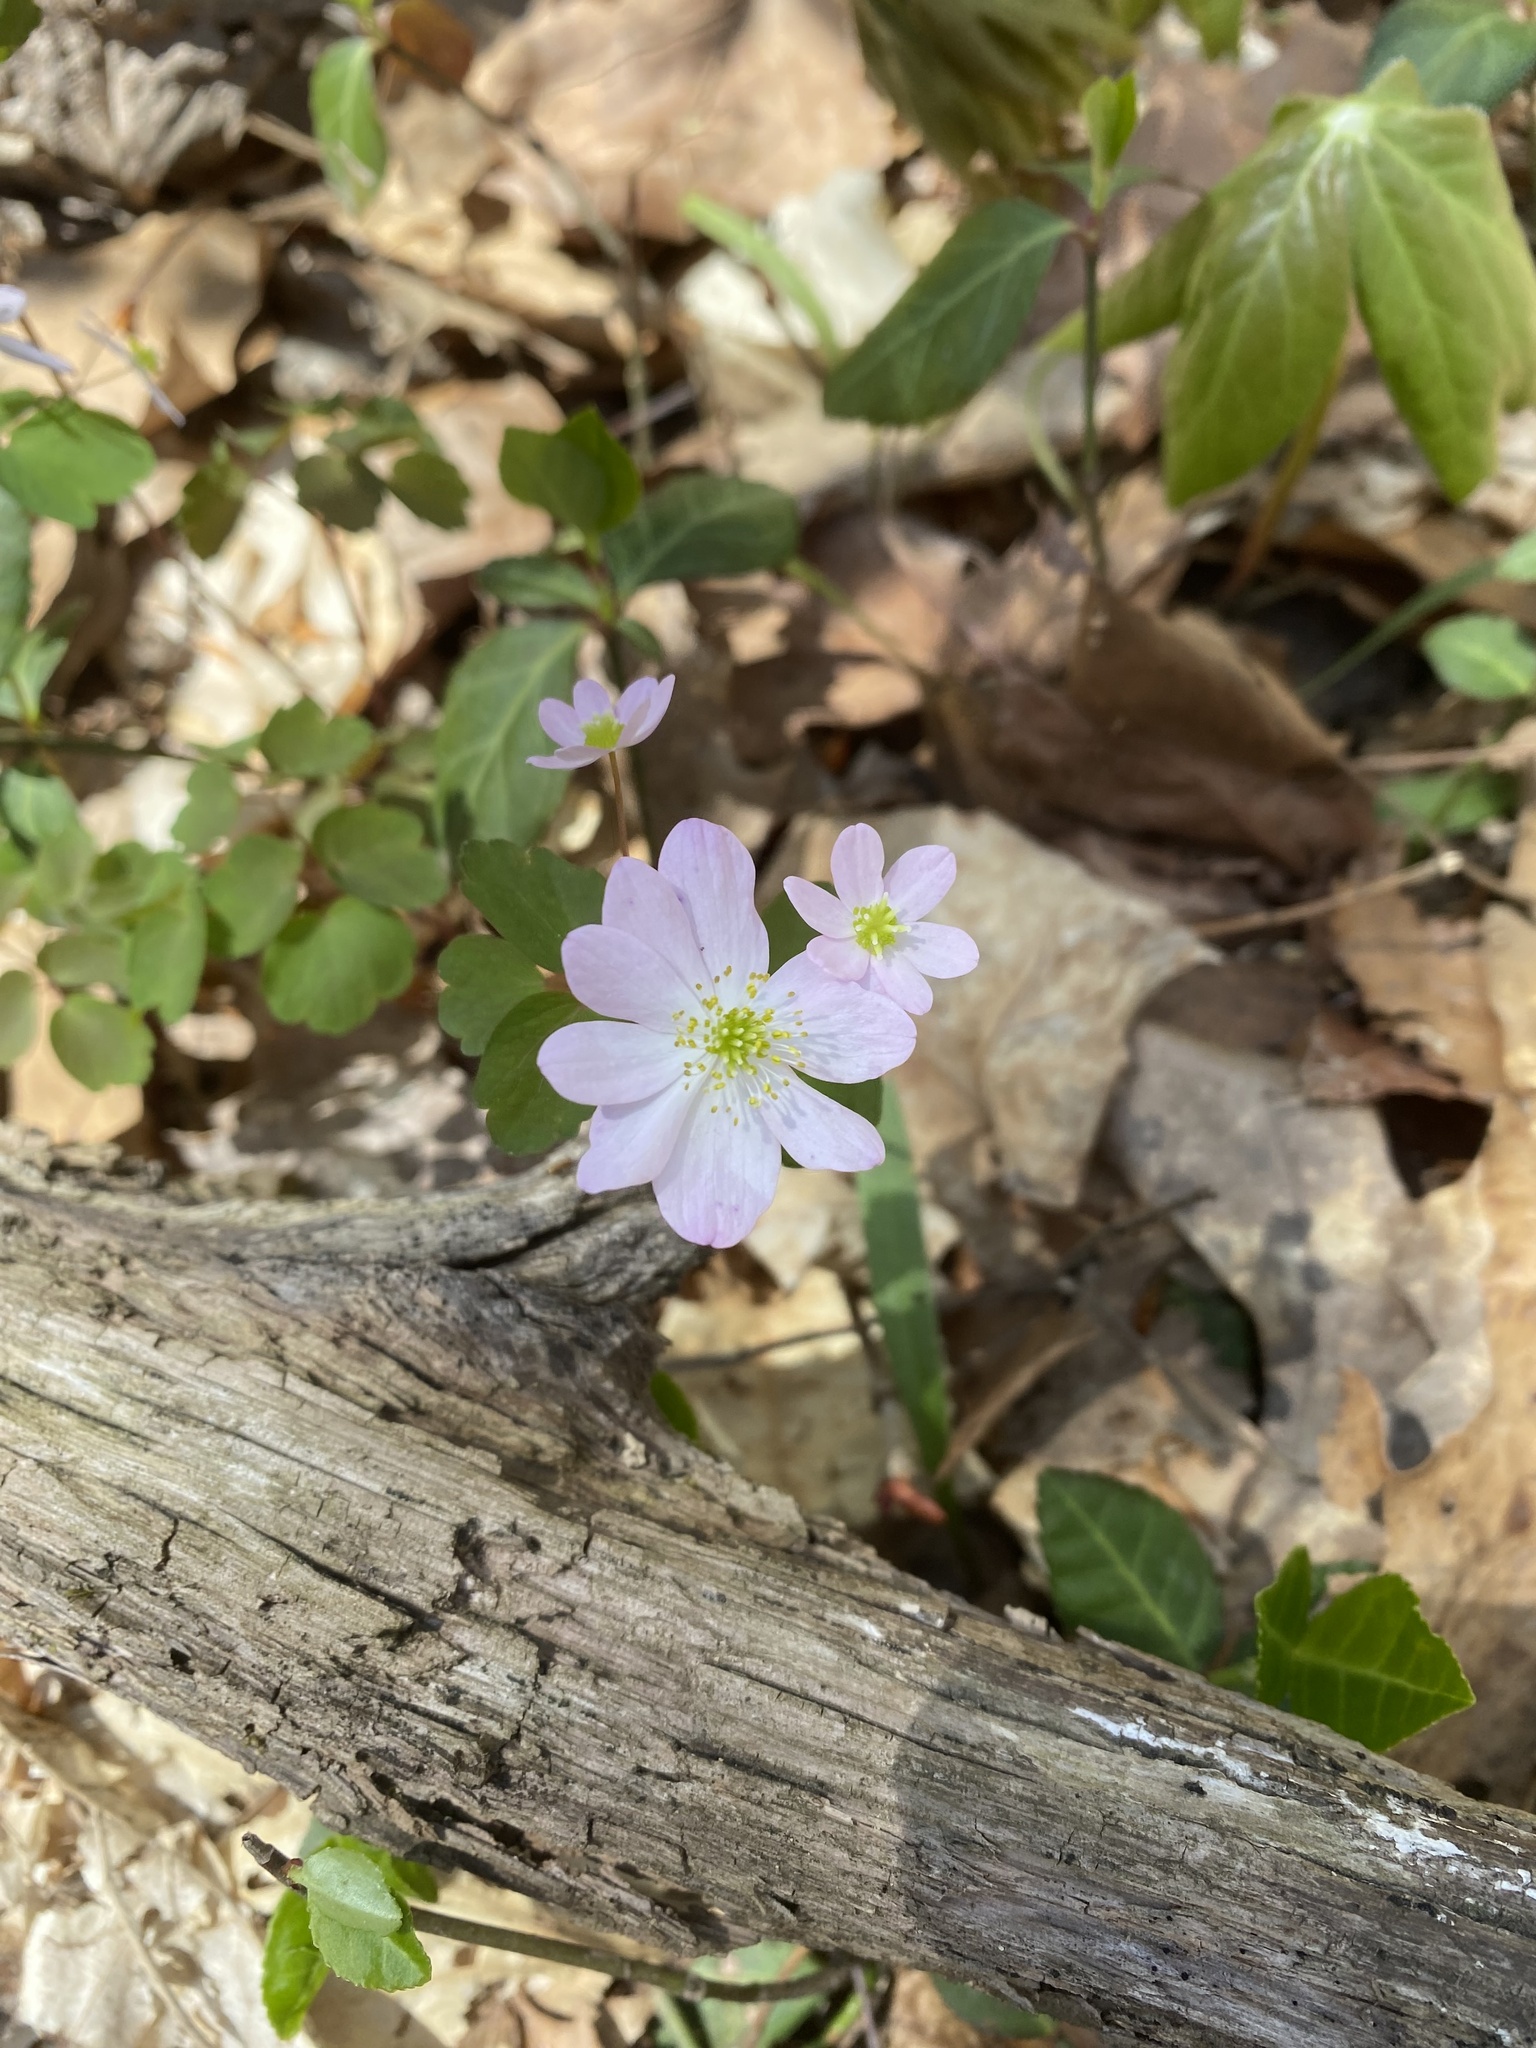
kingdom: Plantae
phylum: Tracheophyta
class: Magnoliopsida
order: Ranunculales
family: Ranunculaceae
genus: Thalictrum
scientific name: Thalictrum thalictroides
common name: Rue-anemone
